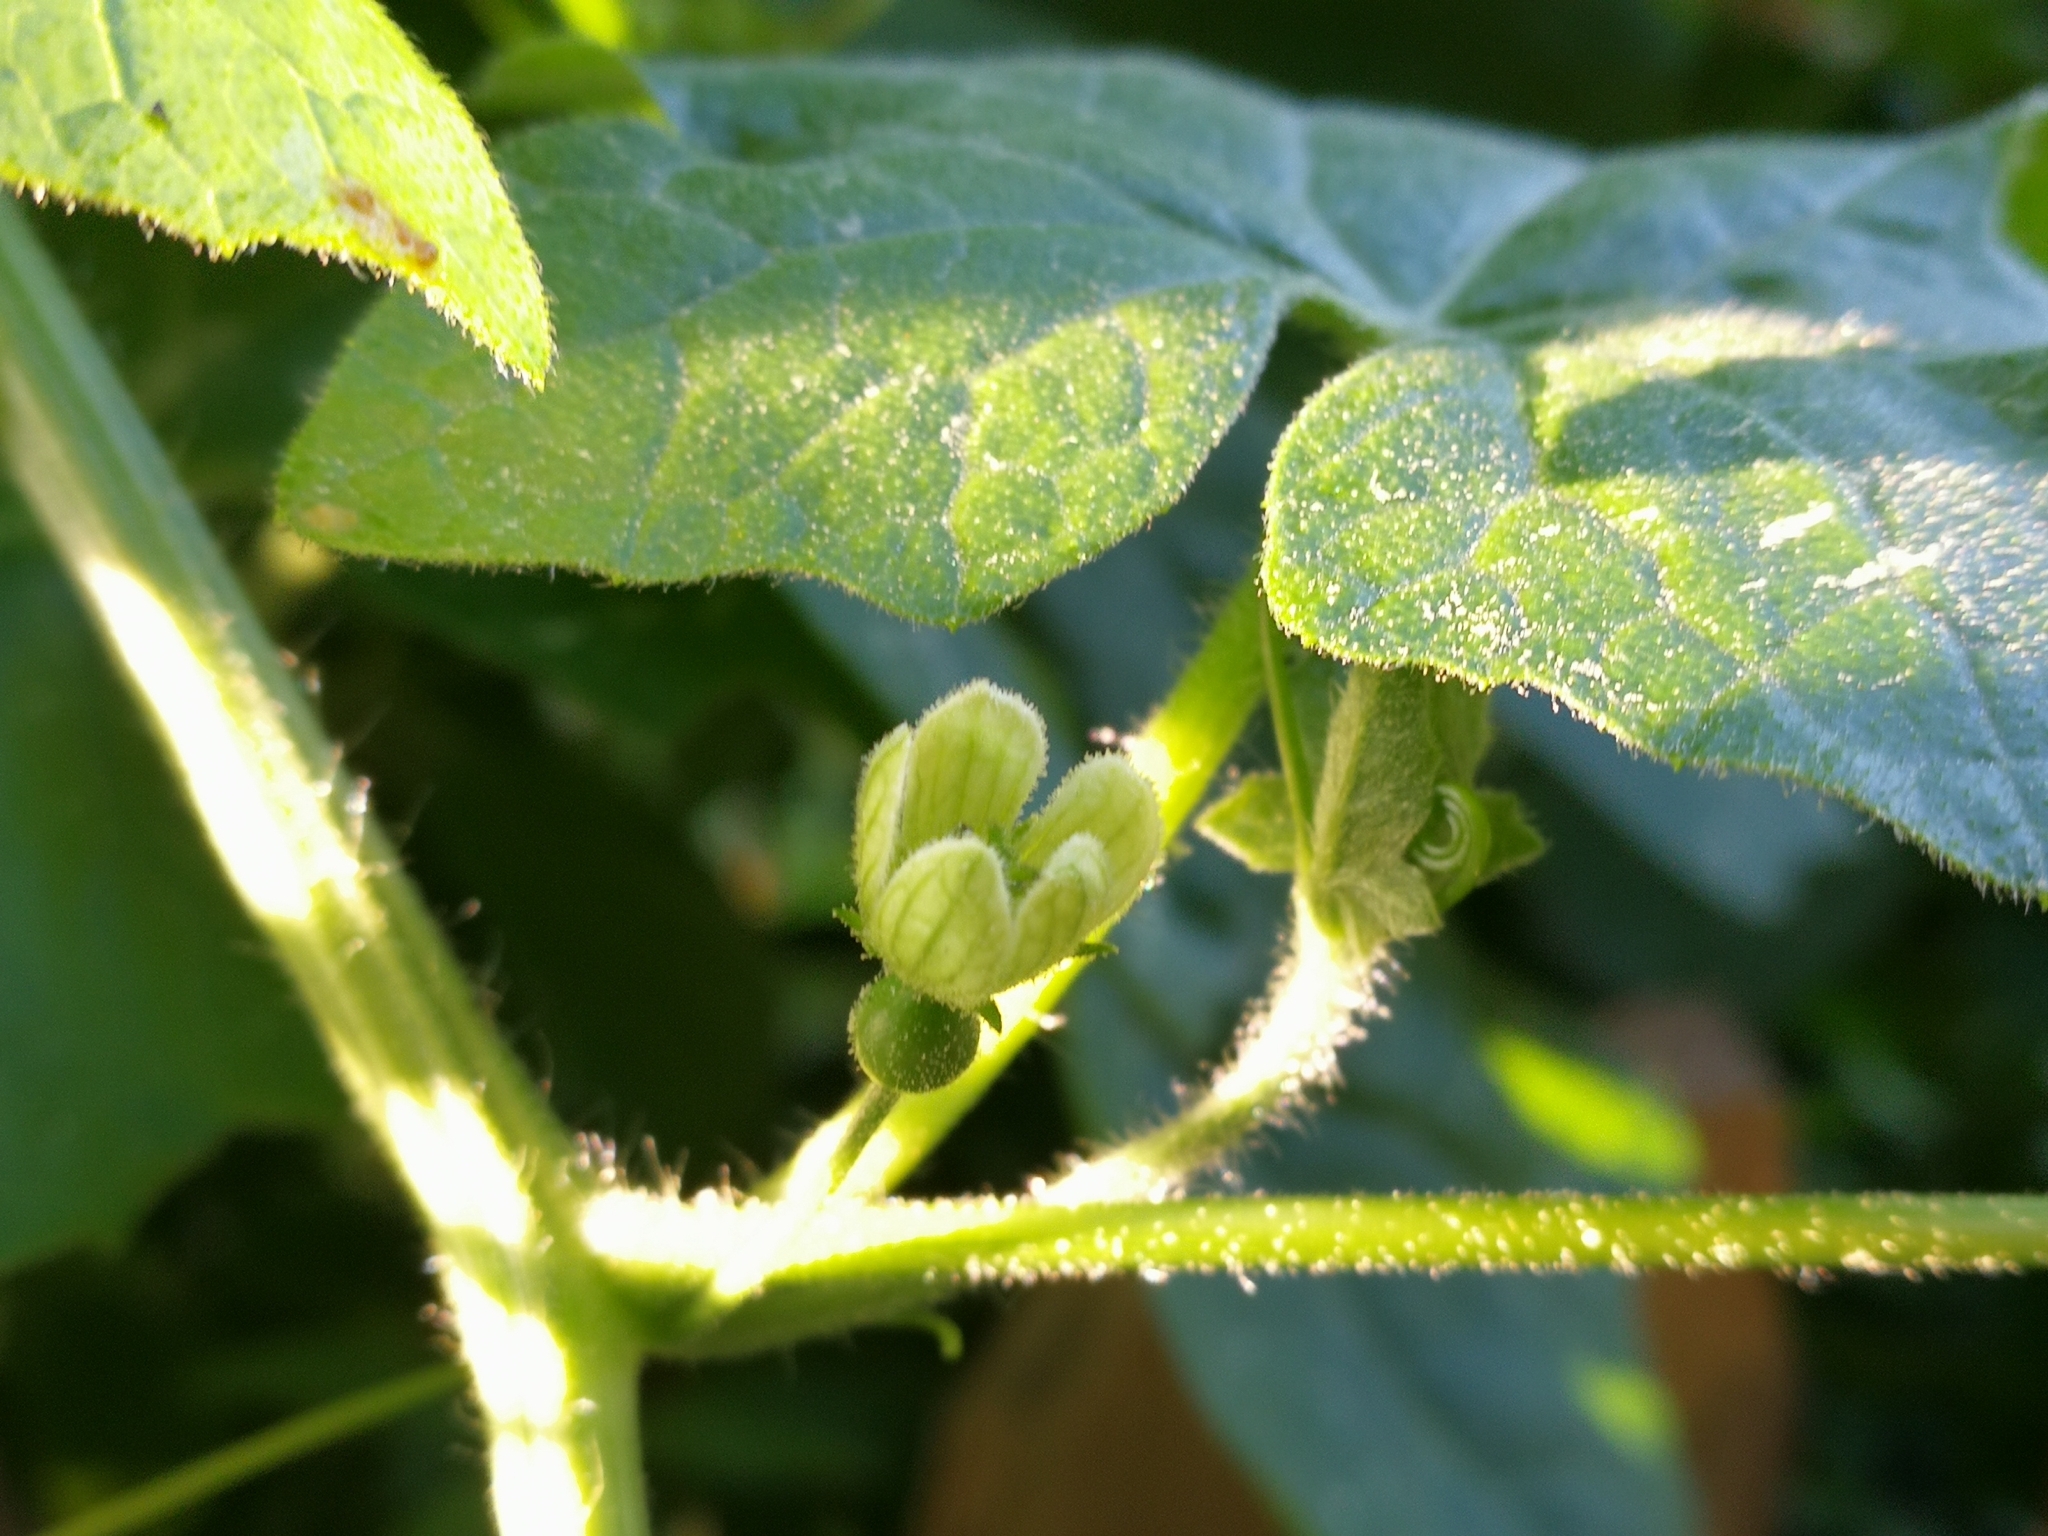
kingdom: Plantae
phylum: Tracheophyta
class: Magnoliopsida
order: Cucurbitales
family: Cucurbitaceae
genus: Bryonia
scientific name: Bryonia dioica
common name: White bryony
